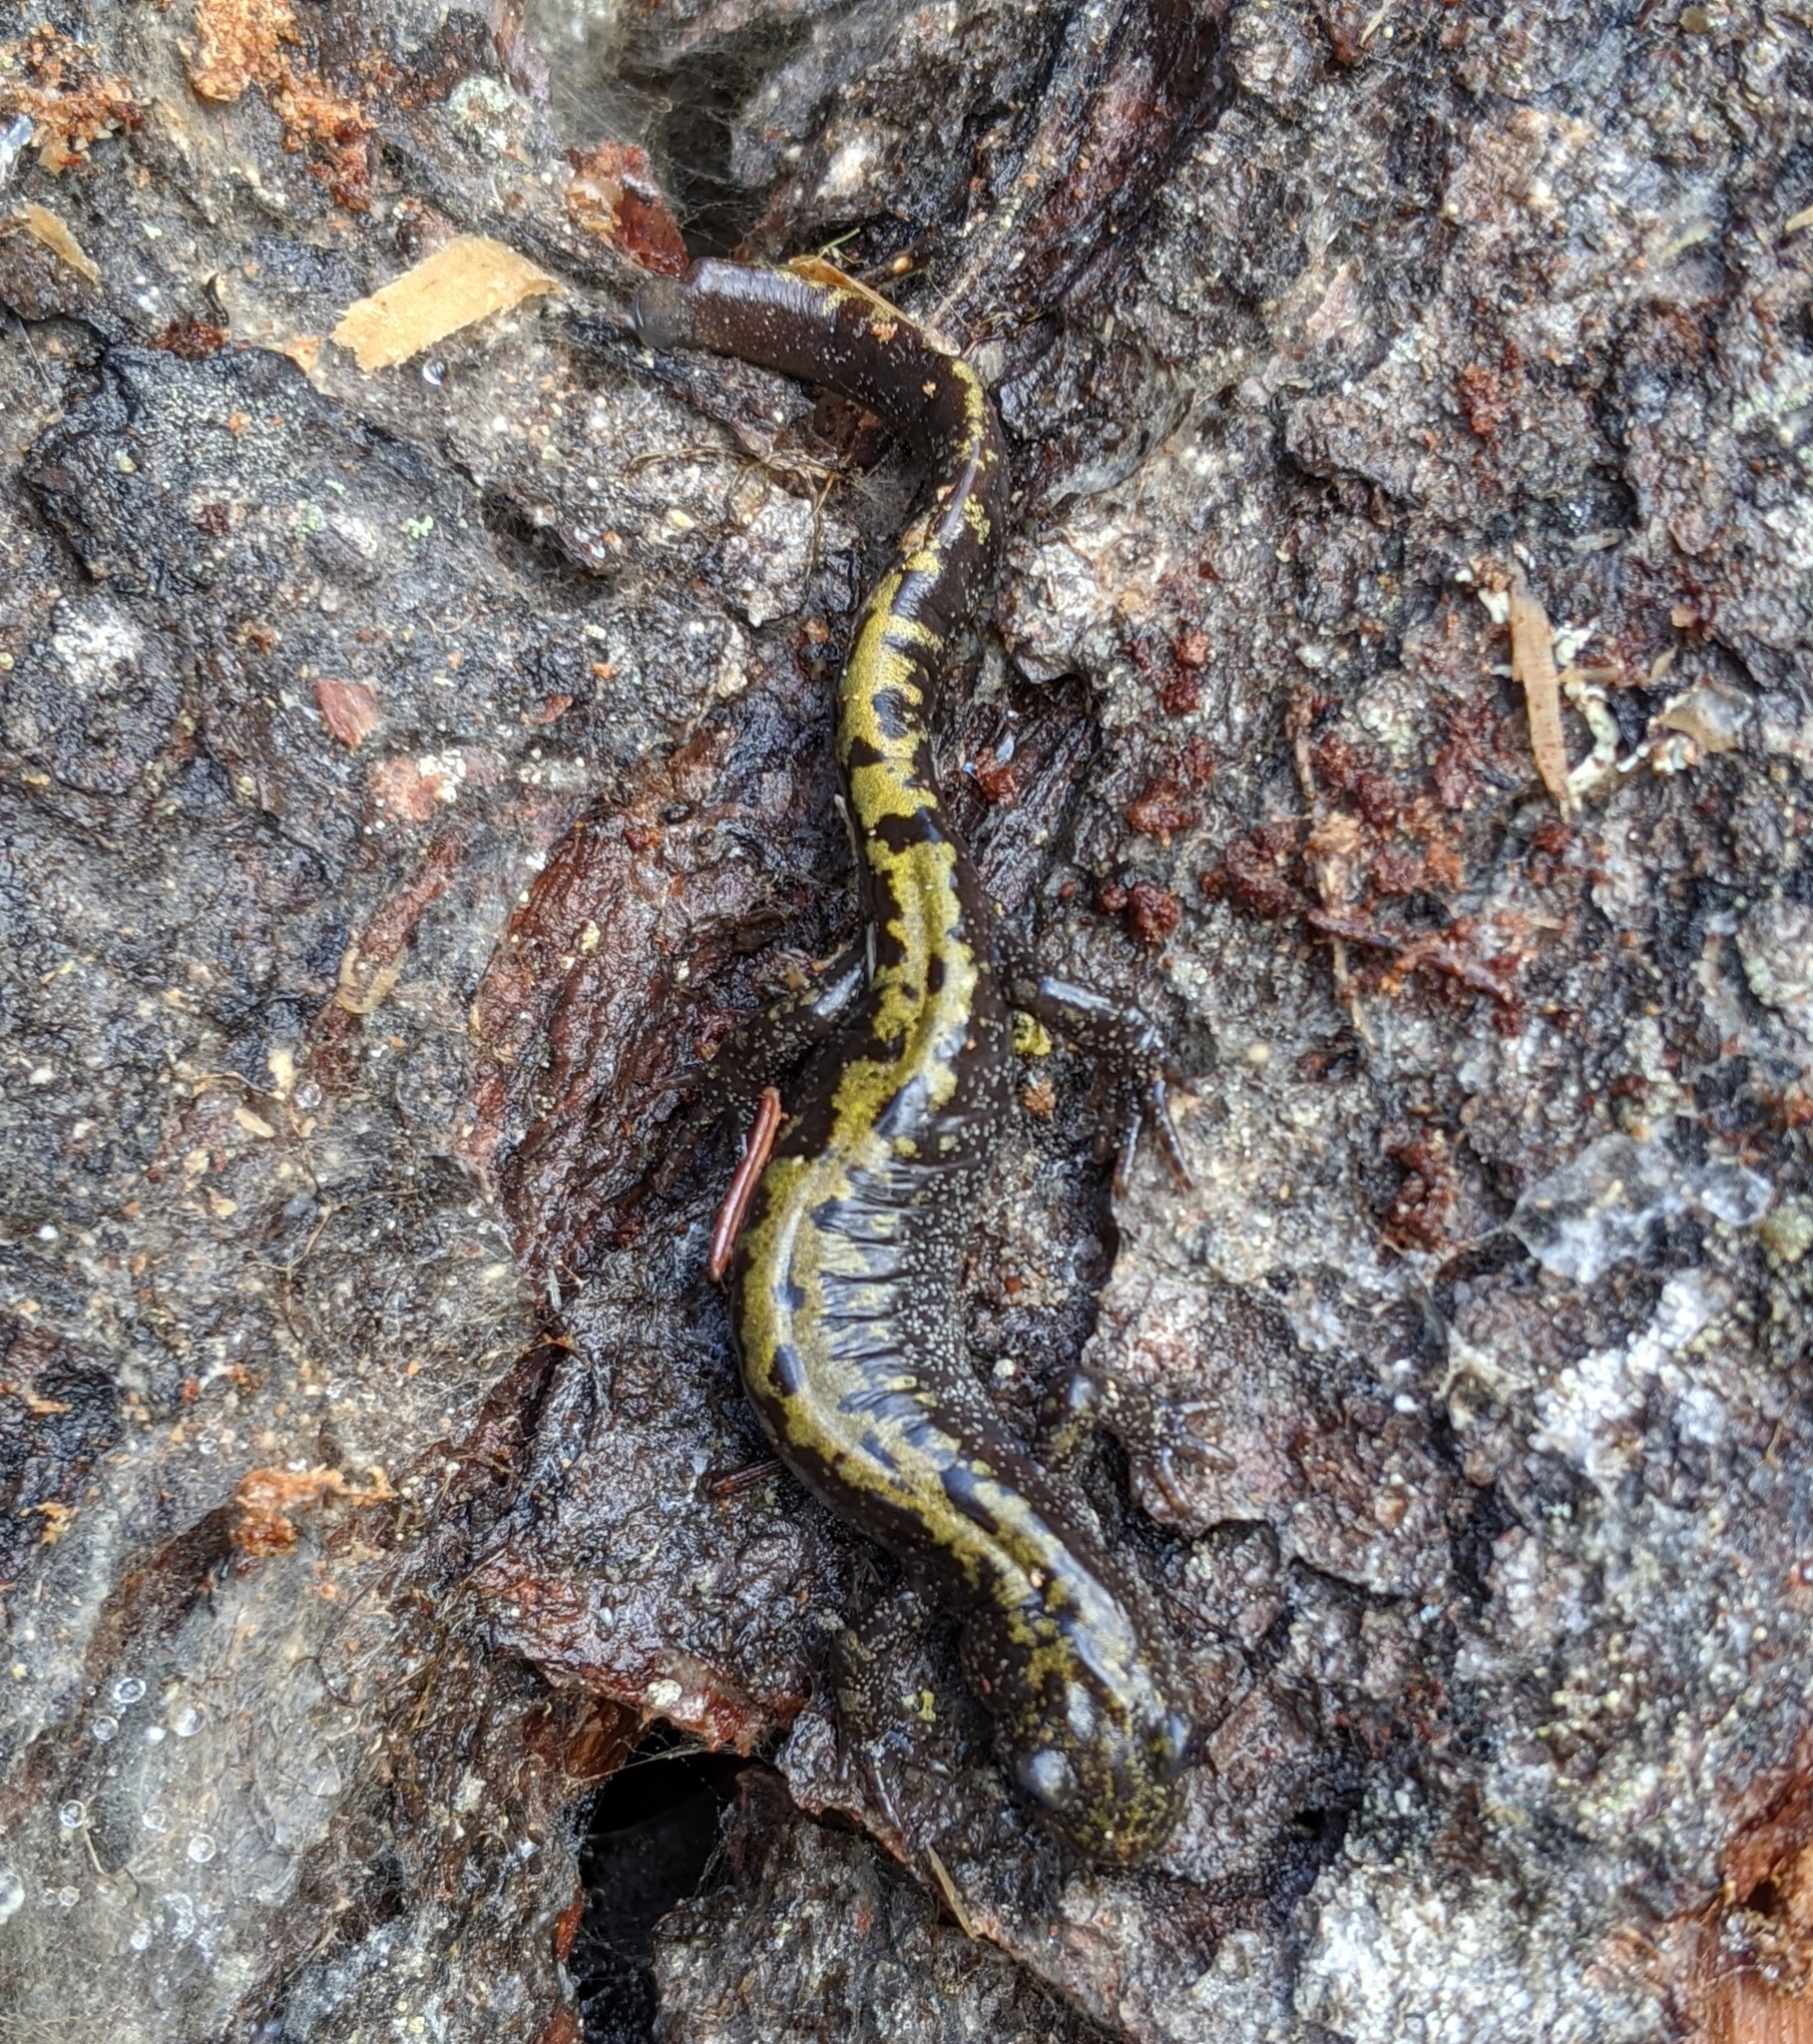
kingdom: Animalia
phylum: Chordata
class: Amphibia
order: Caudata
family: Ambystomatidae
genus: Ambystoma
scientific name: Ambystoma macrodactylum
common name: Long-toed salamander
